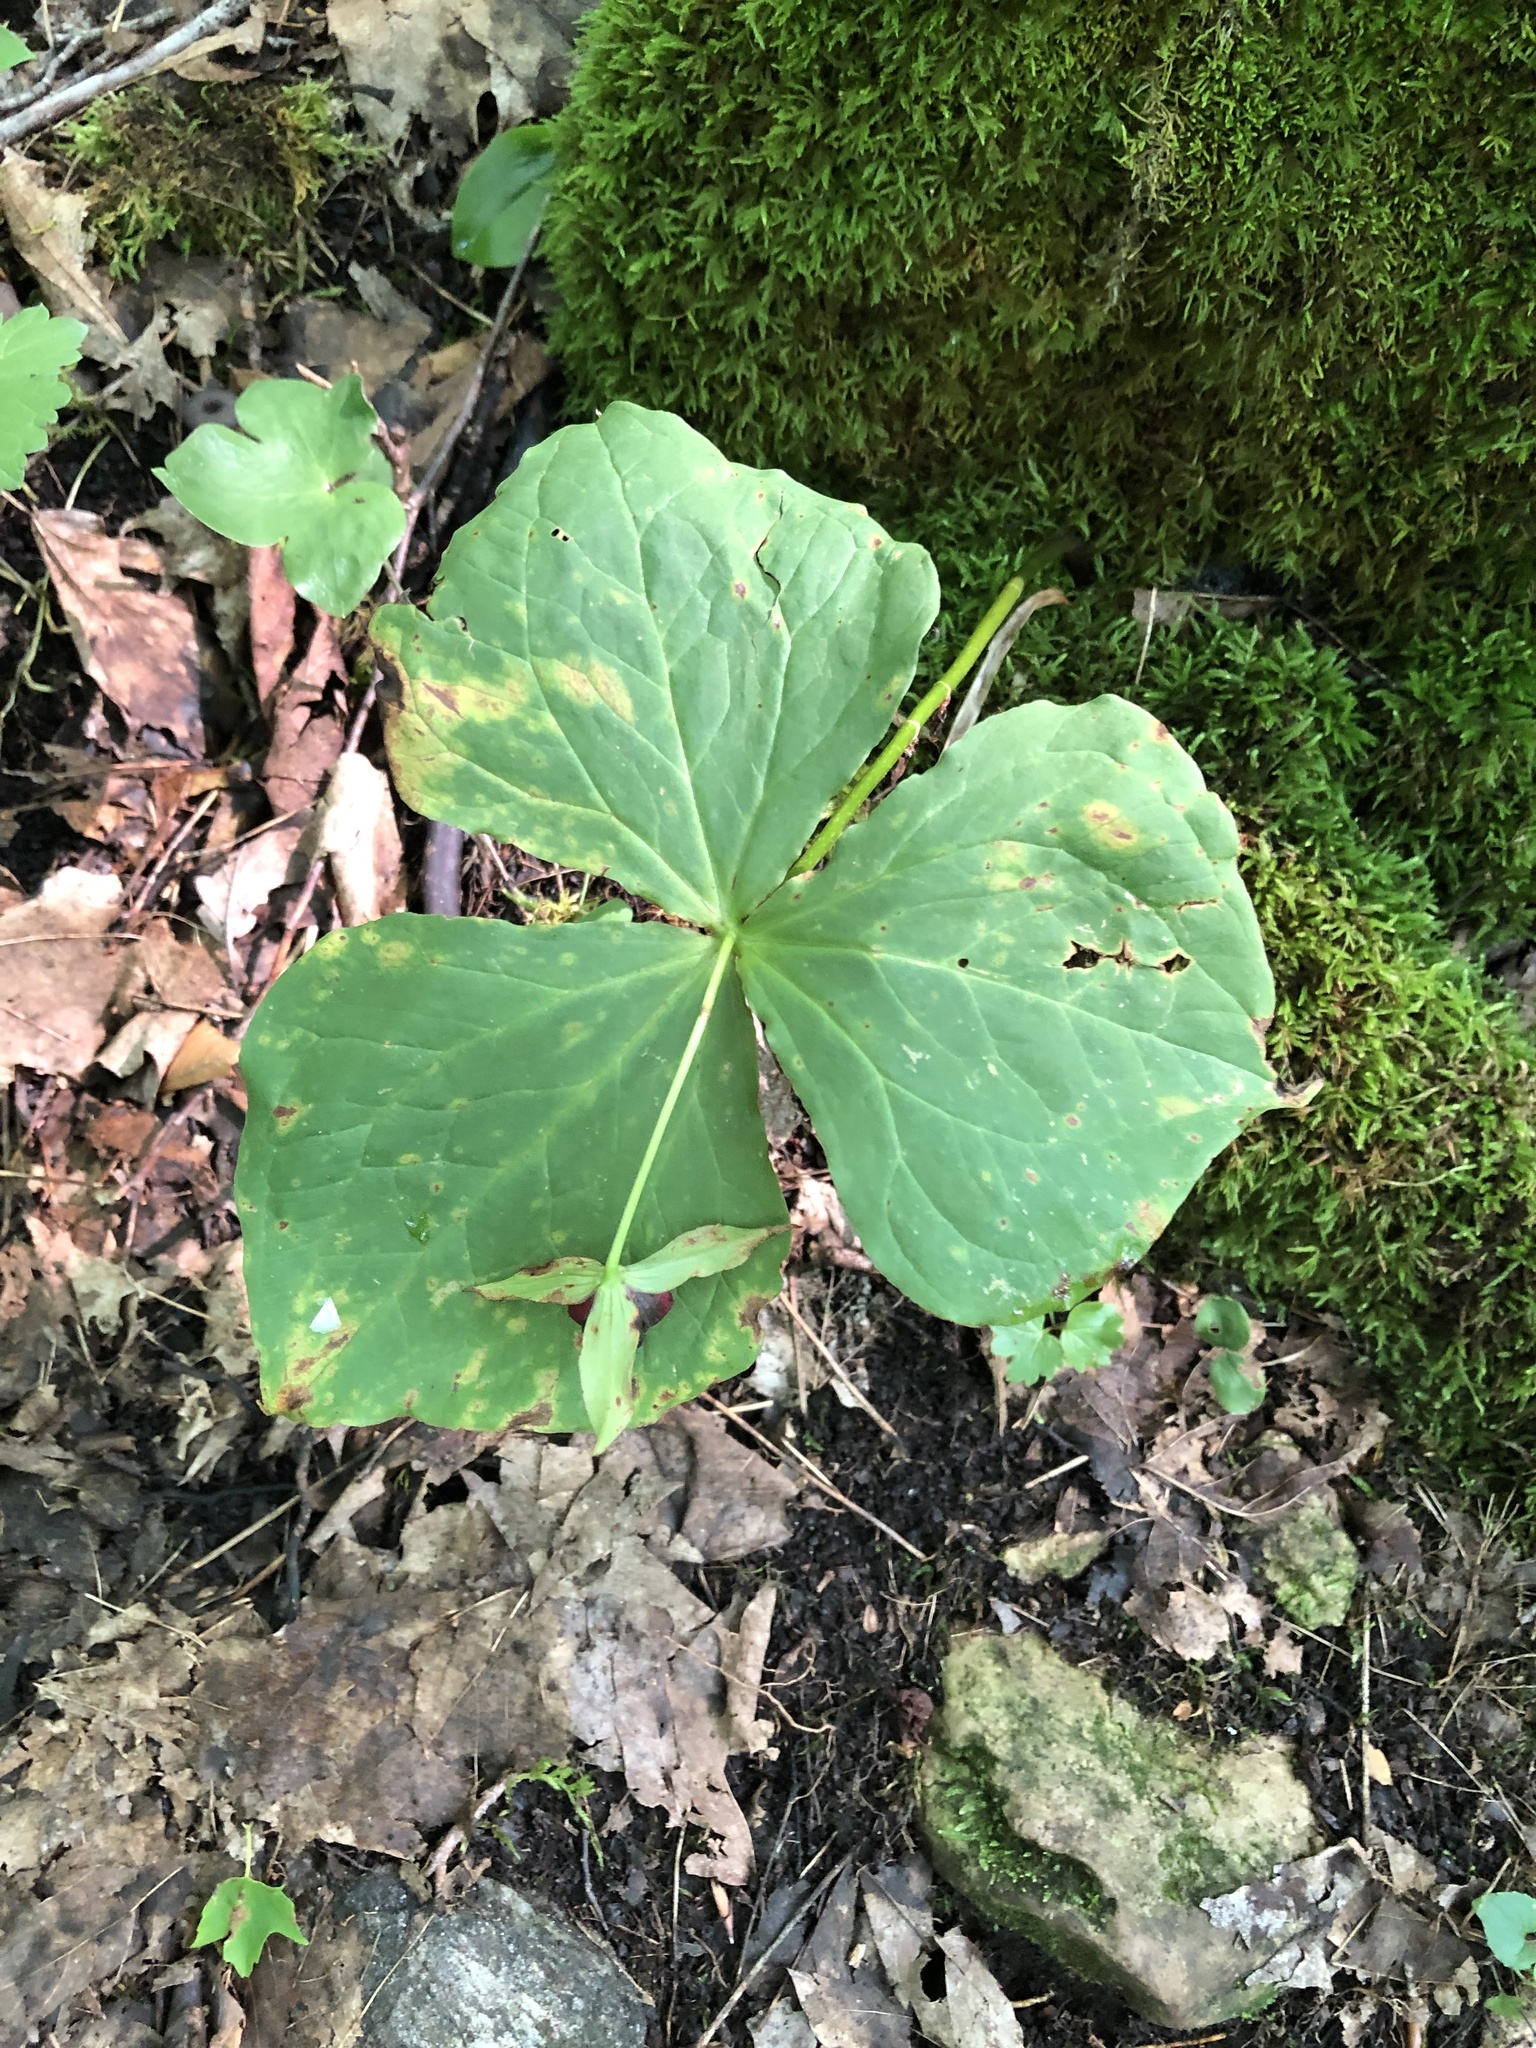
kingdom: Plantae
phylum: Tracheophyta
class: Liliopsida
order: Liliales
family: Melanthiaceae
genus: Trillium
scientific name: Trillium erectum
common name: Purple trillium
